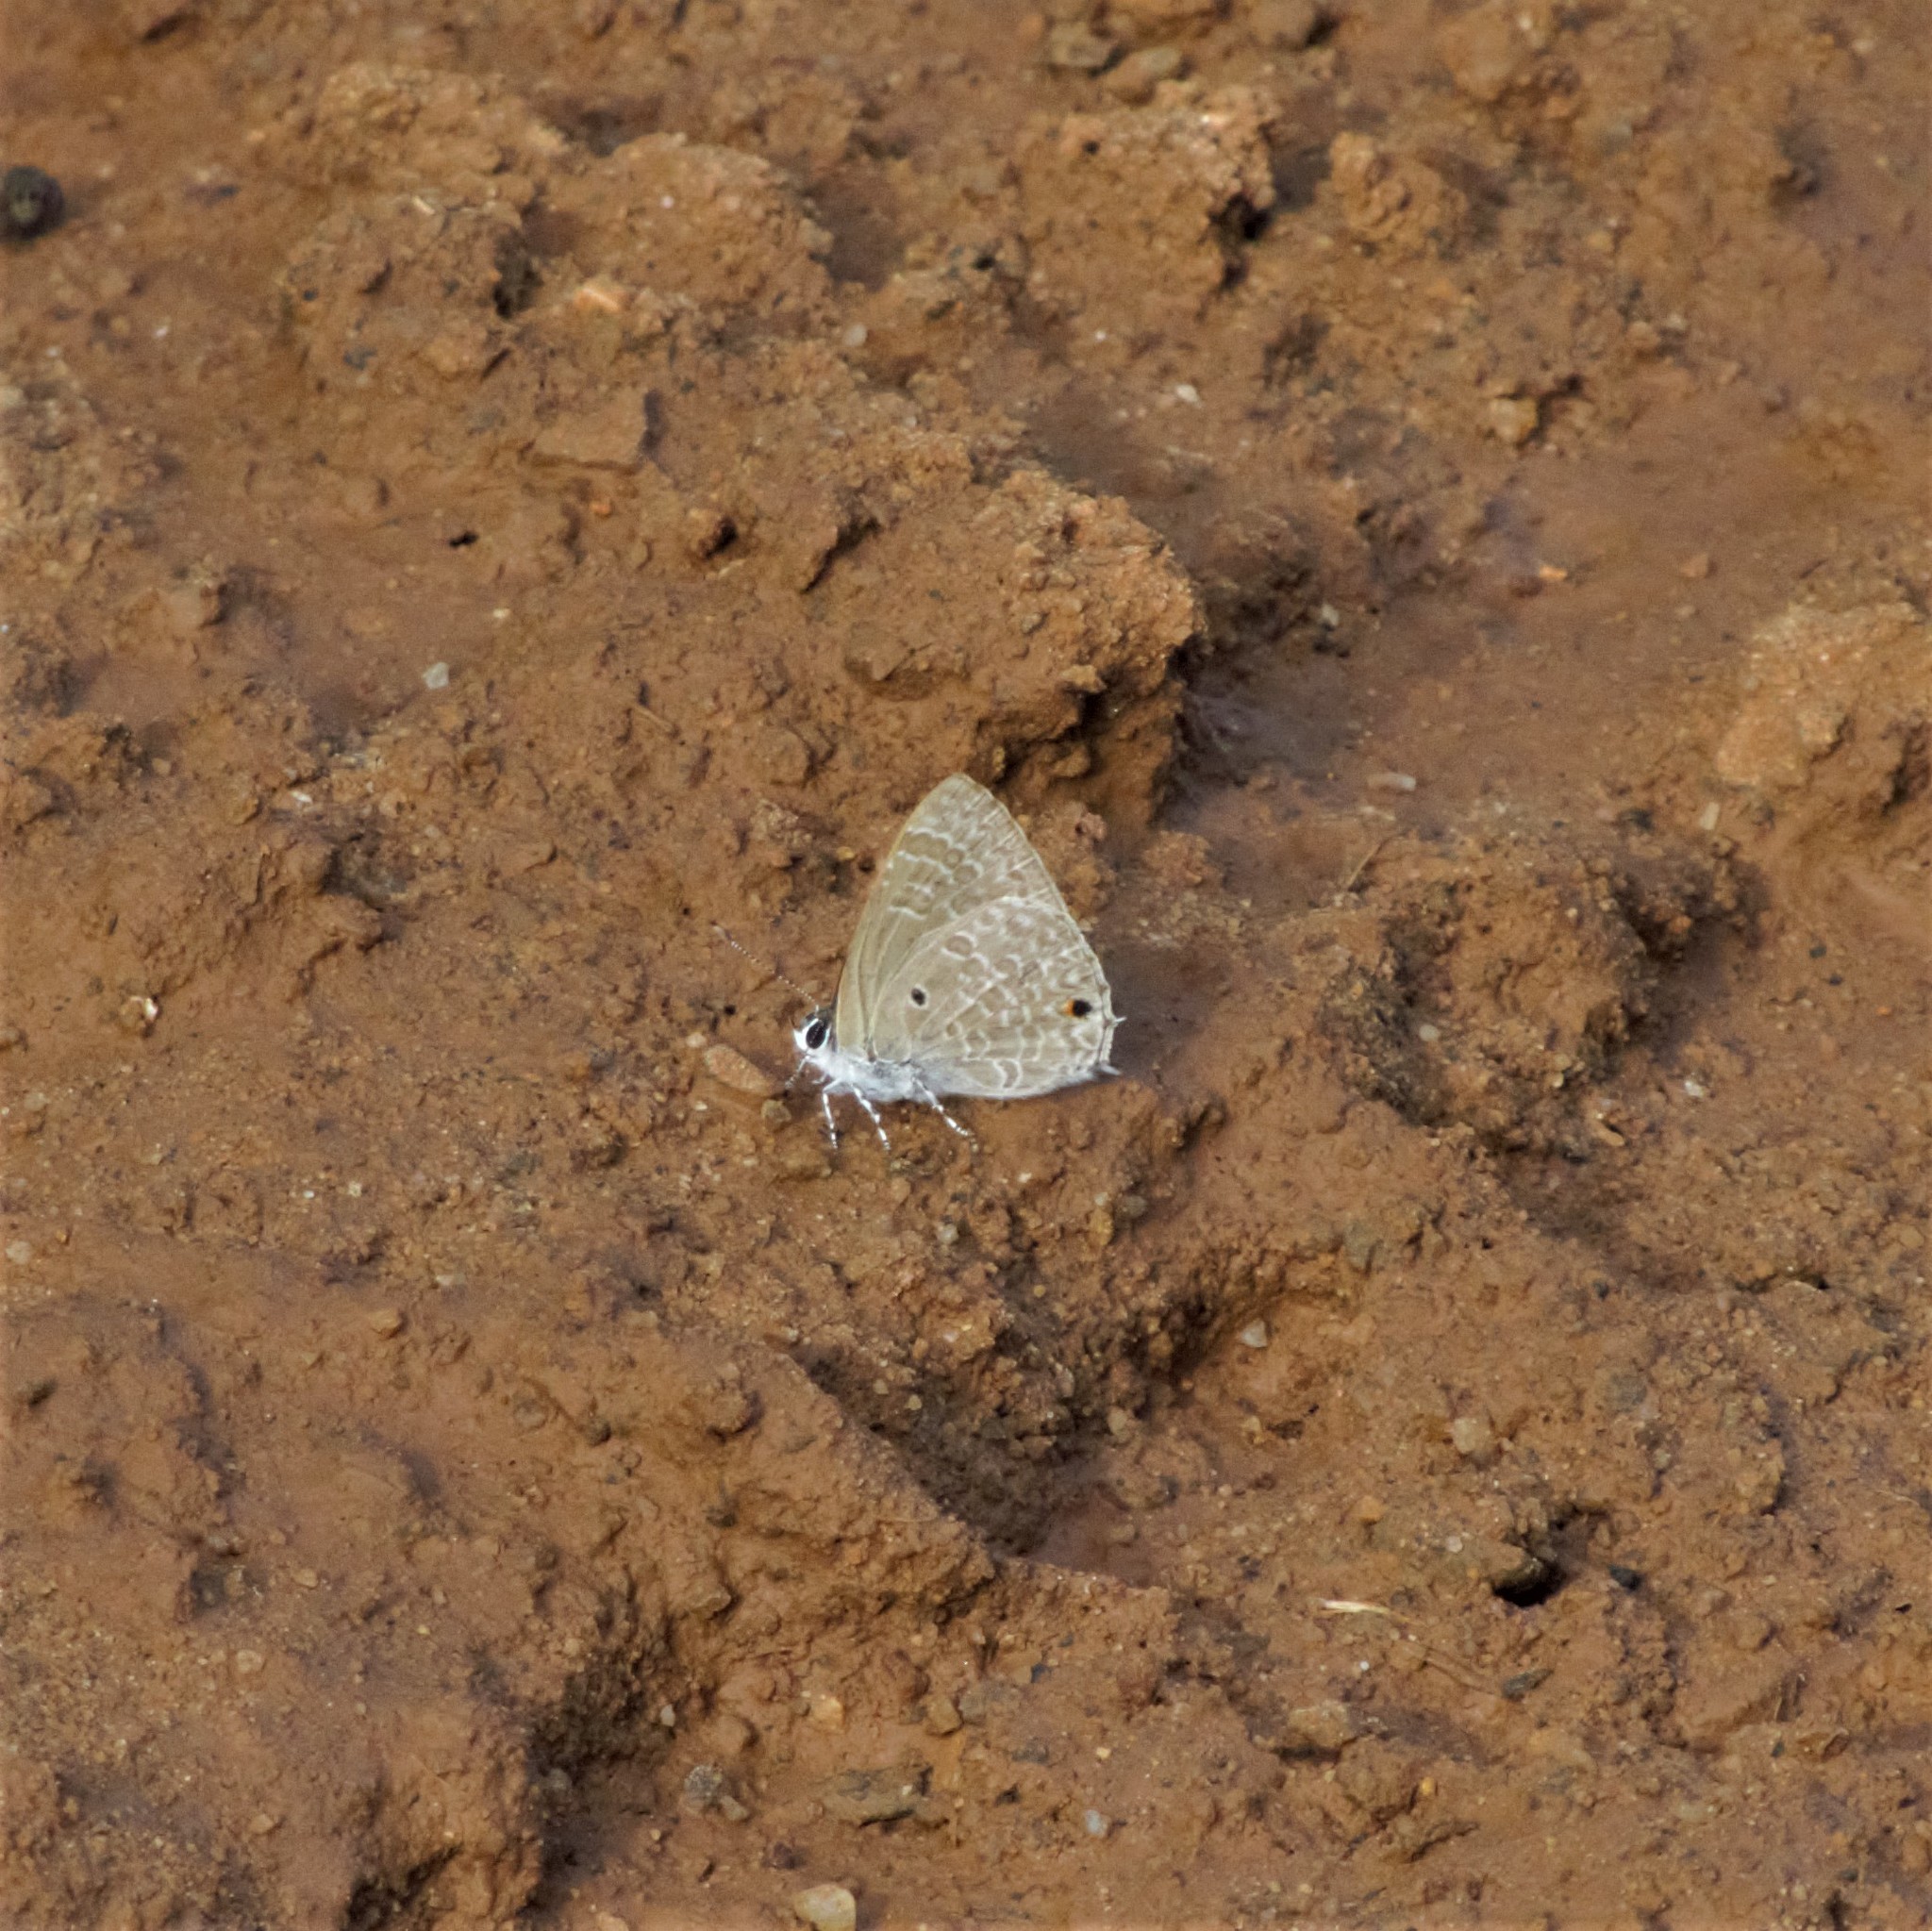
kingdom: Animalia
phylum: Arthropoda
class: Insecta
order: Lepidoptera
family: Lycaenidae
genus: Anthene
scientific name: Anthene lycaenina
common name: Pointed ciliate blue
